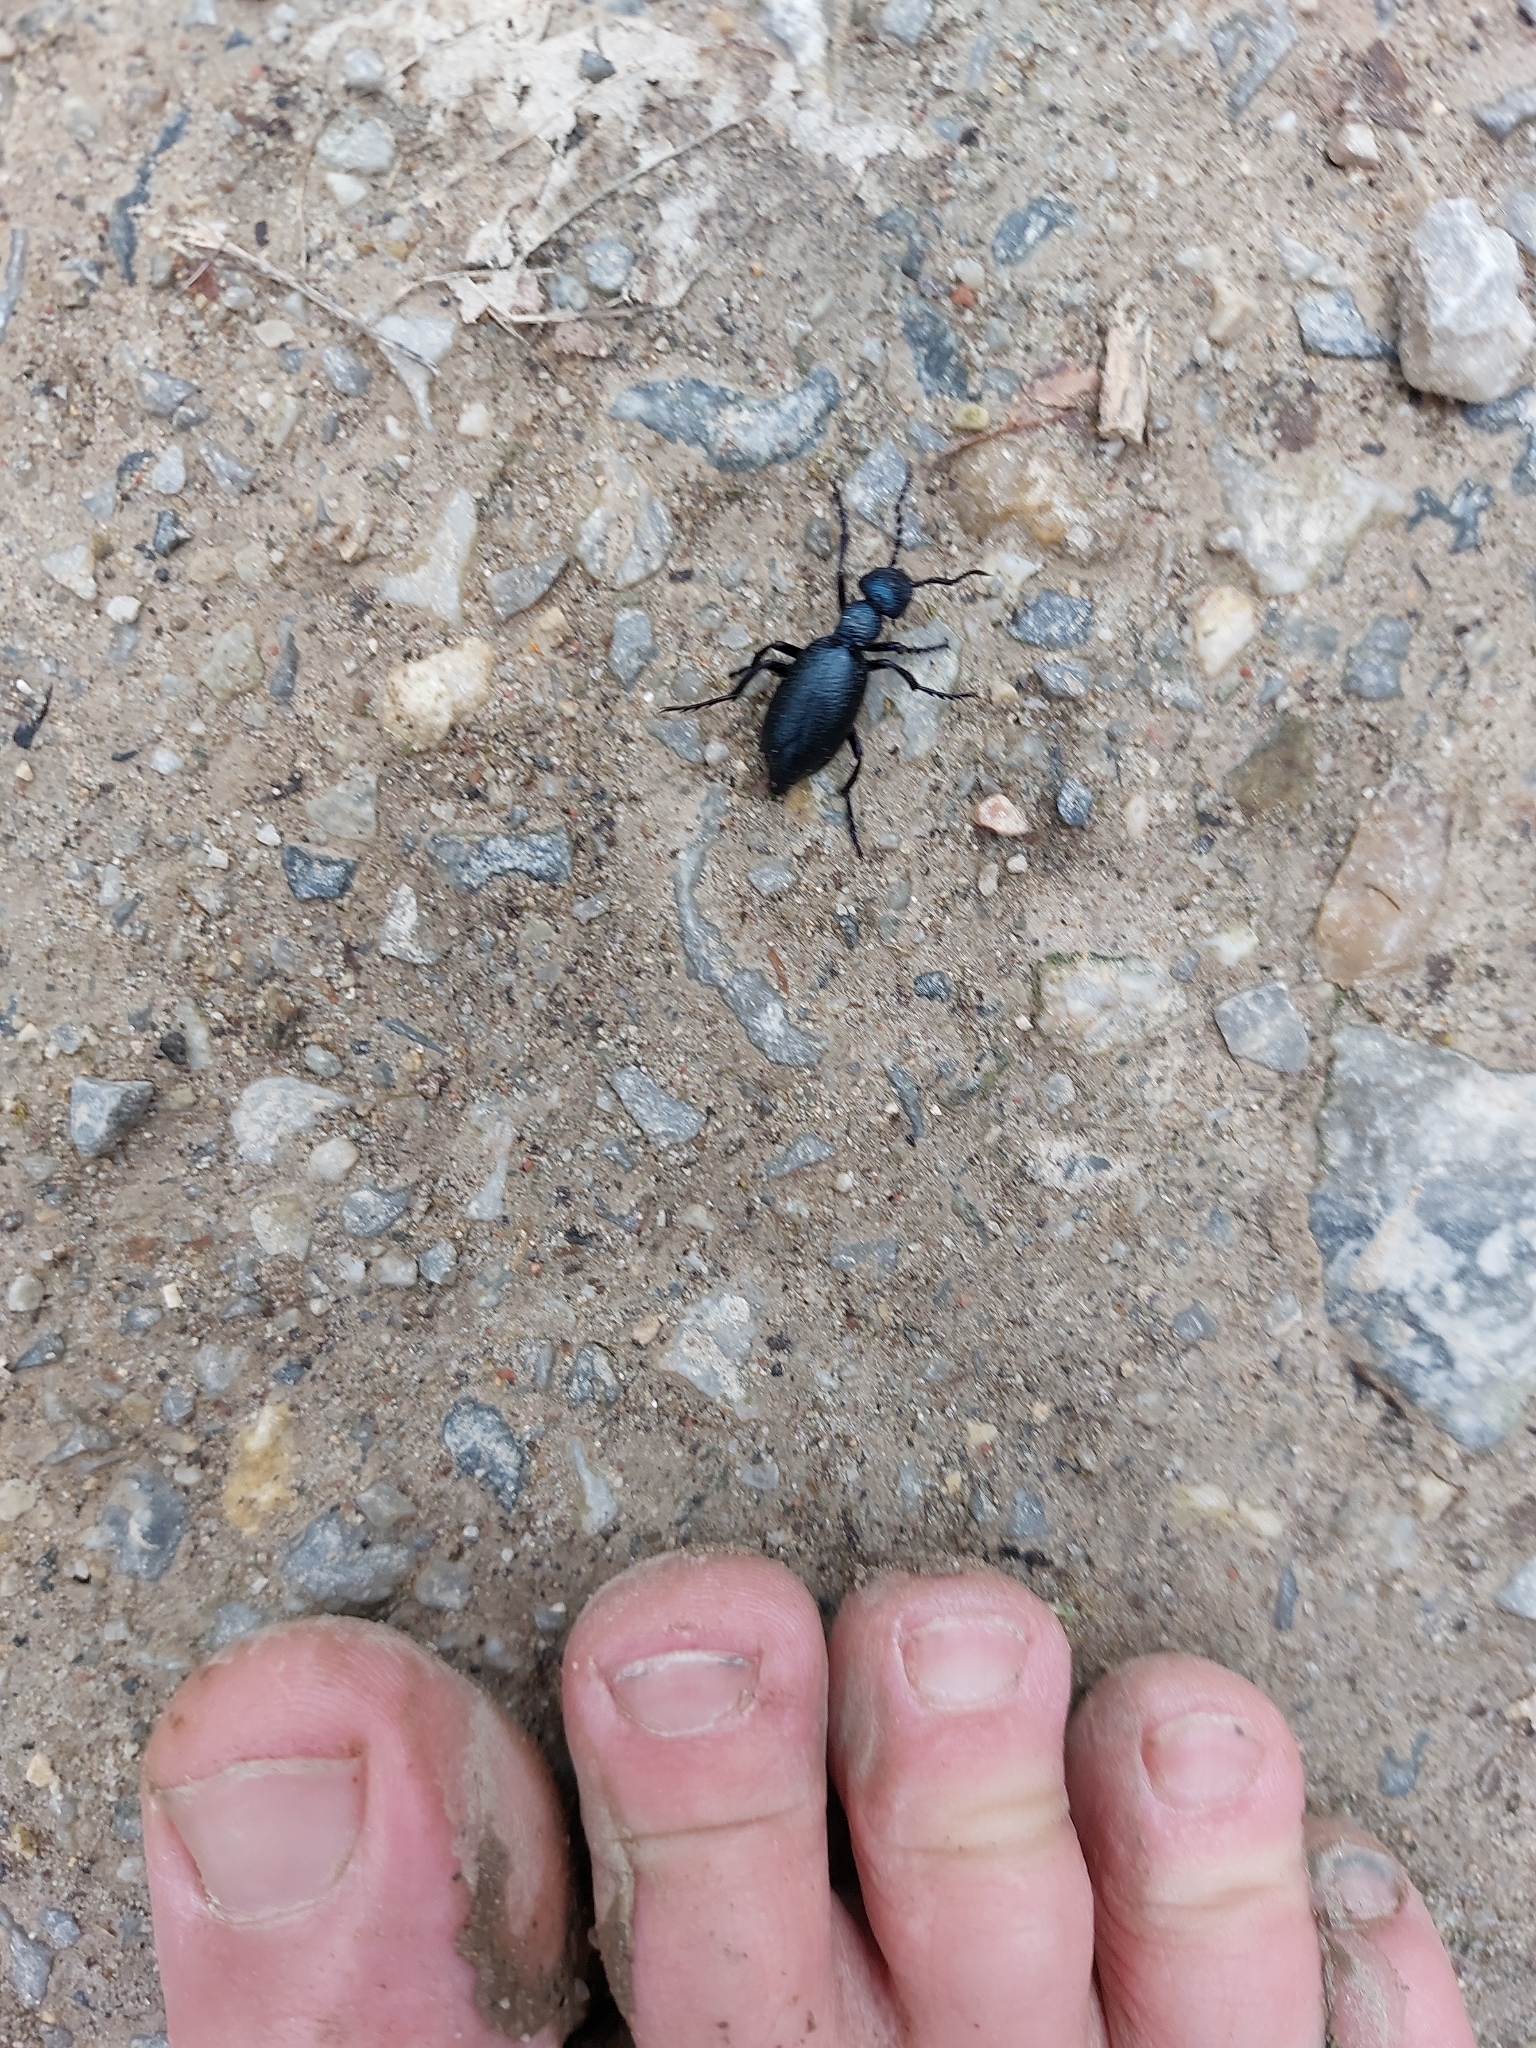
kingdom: Animalia
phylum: Arthropoda
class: Insecta
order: Coleoptera
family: Meloidae
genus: Meloe
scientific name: Meloe proscarabaeus
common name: Black oil-beetle
